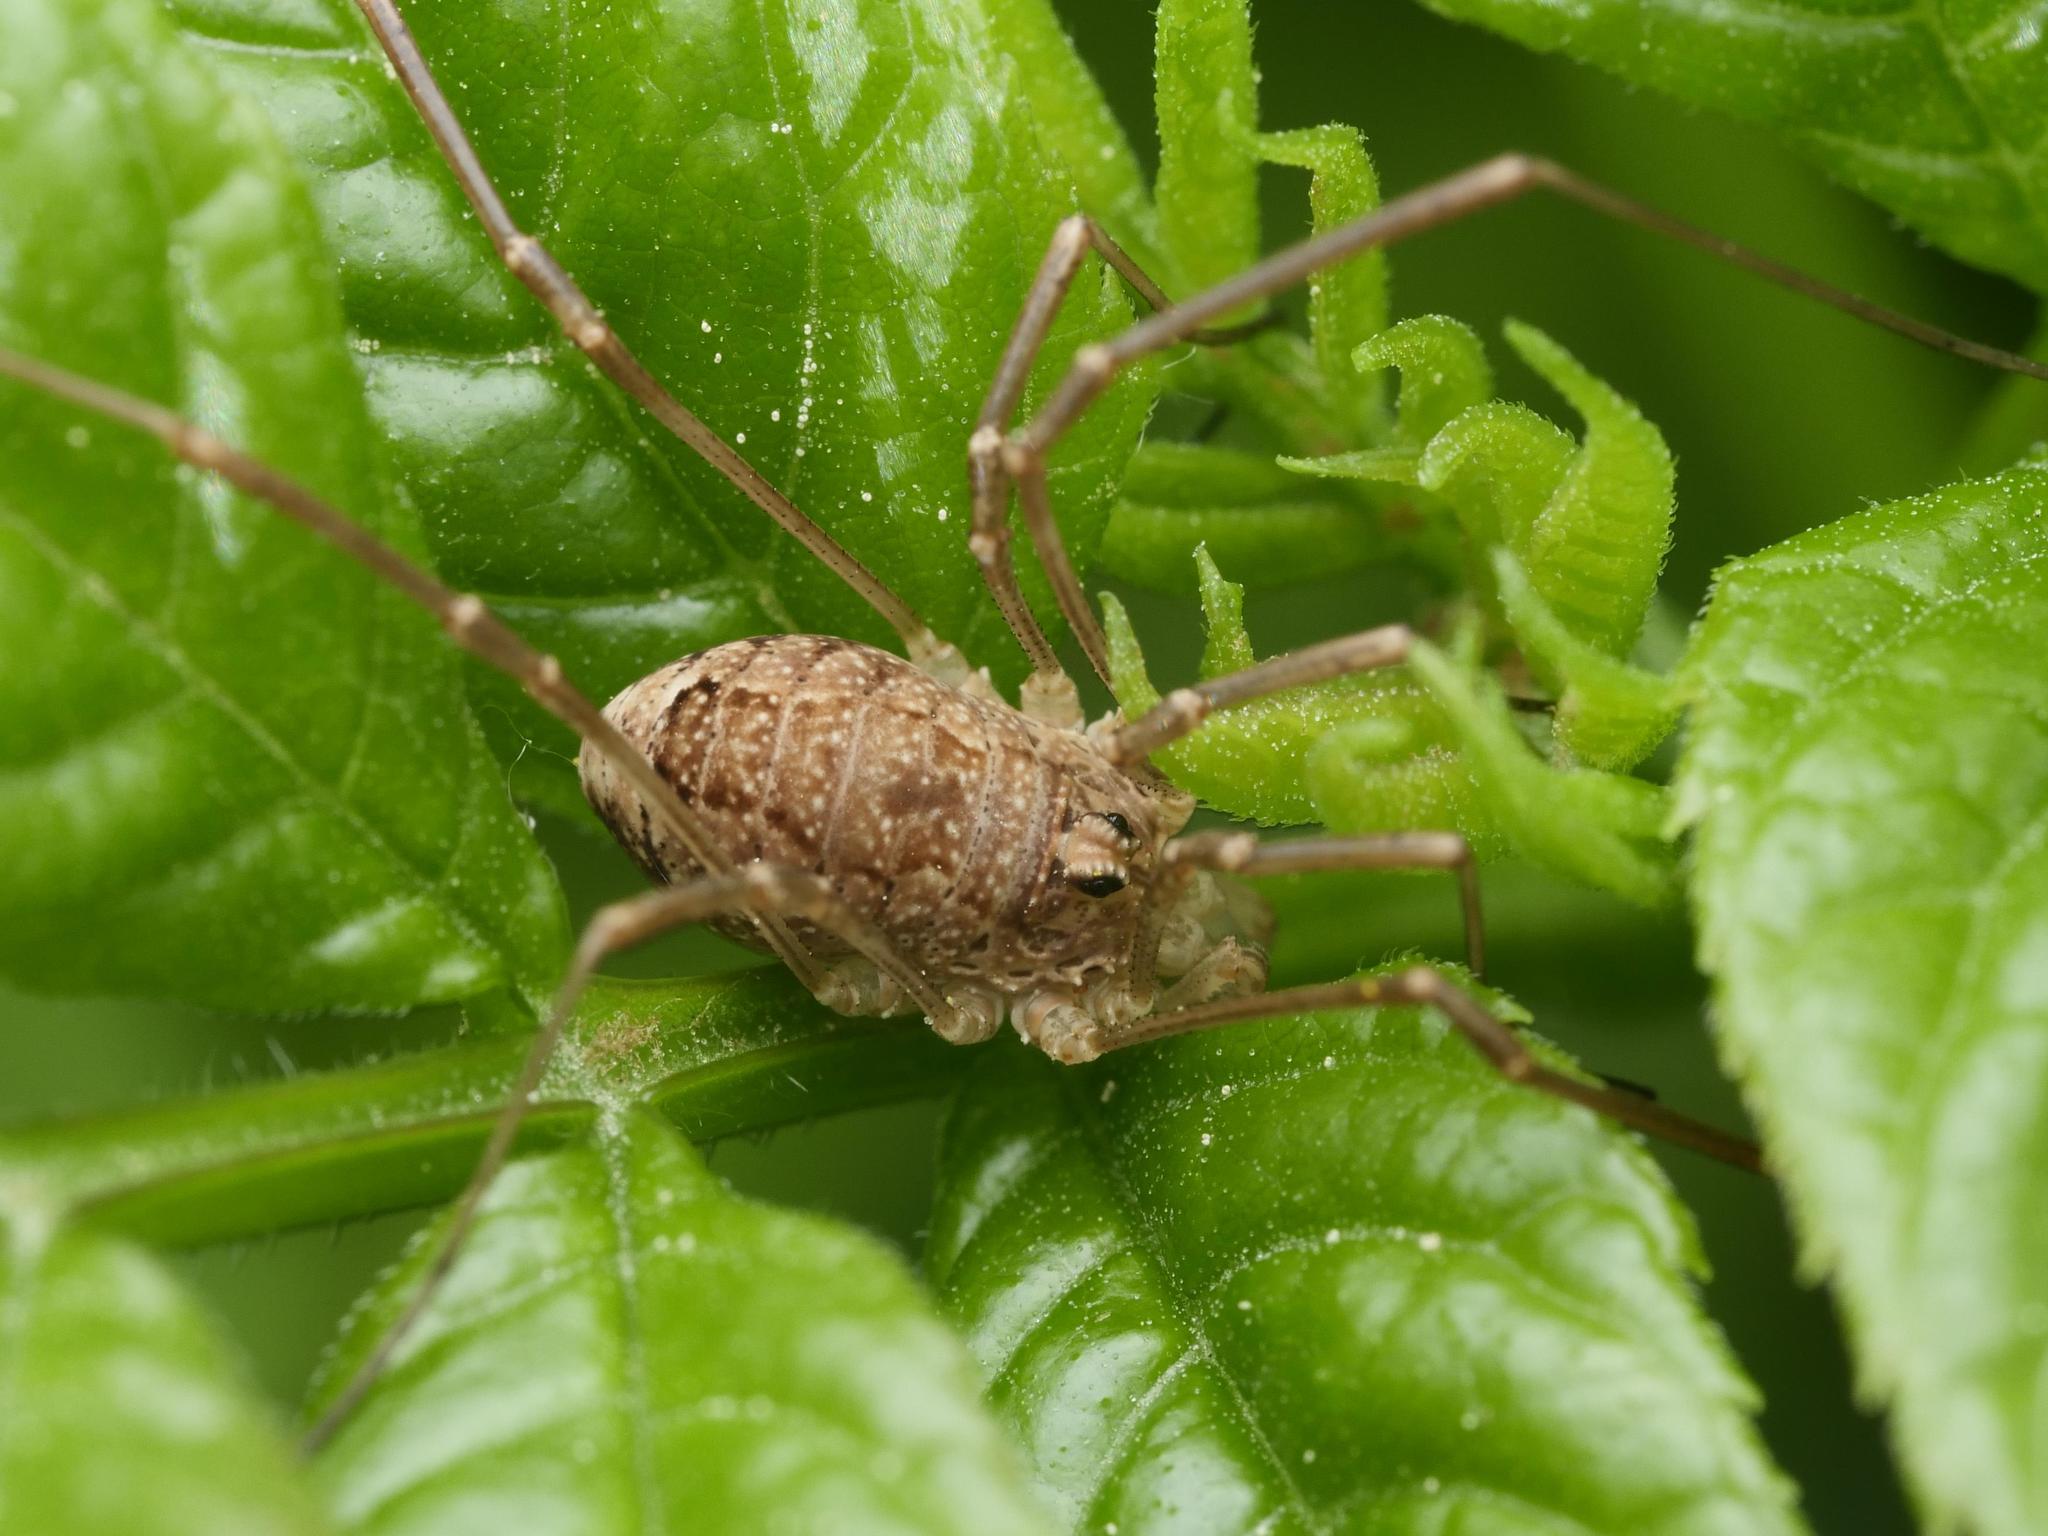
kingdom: Animalia
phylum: Arthropoda
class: Arachnida
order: Opiliones
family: Phalangiidae
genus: Rilaena
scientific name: Rilaena triangularis
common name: Spring harvestman
